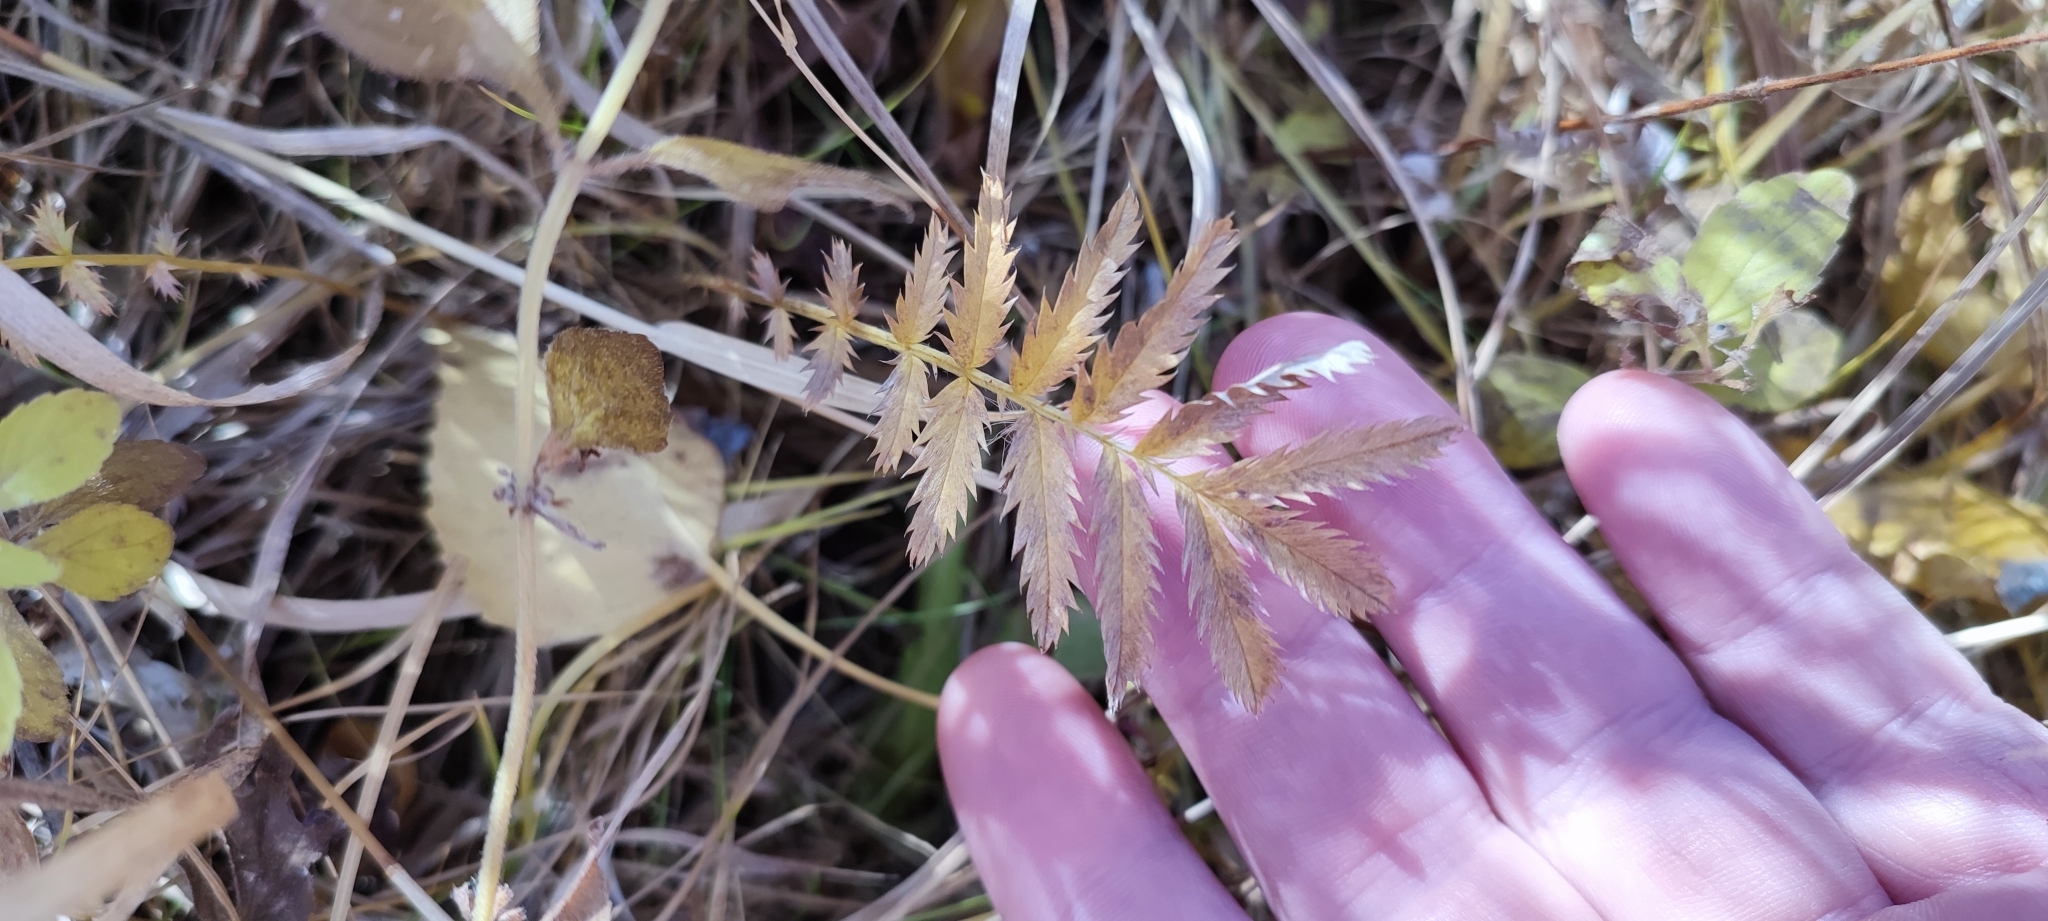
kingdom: Plantae
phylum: Tracheophyta
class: Magnoliopsida
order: Rosales
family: Rosaceae
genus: Argentina
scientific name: Argentina anserina
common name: Common silverweed
